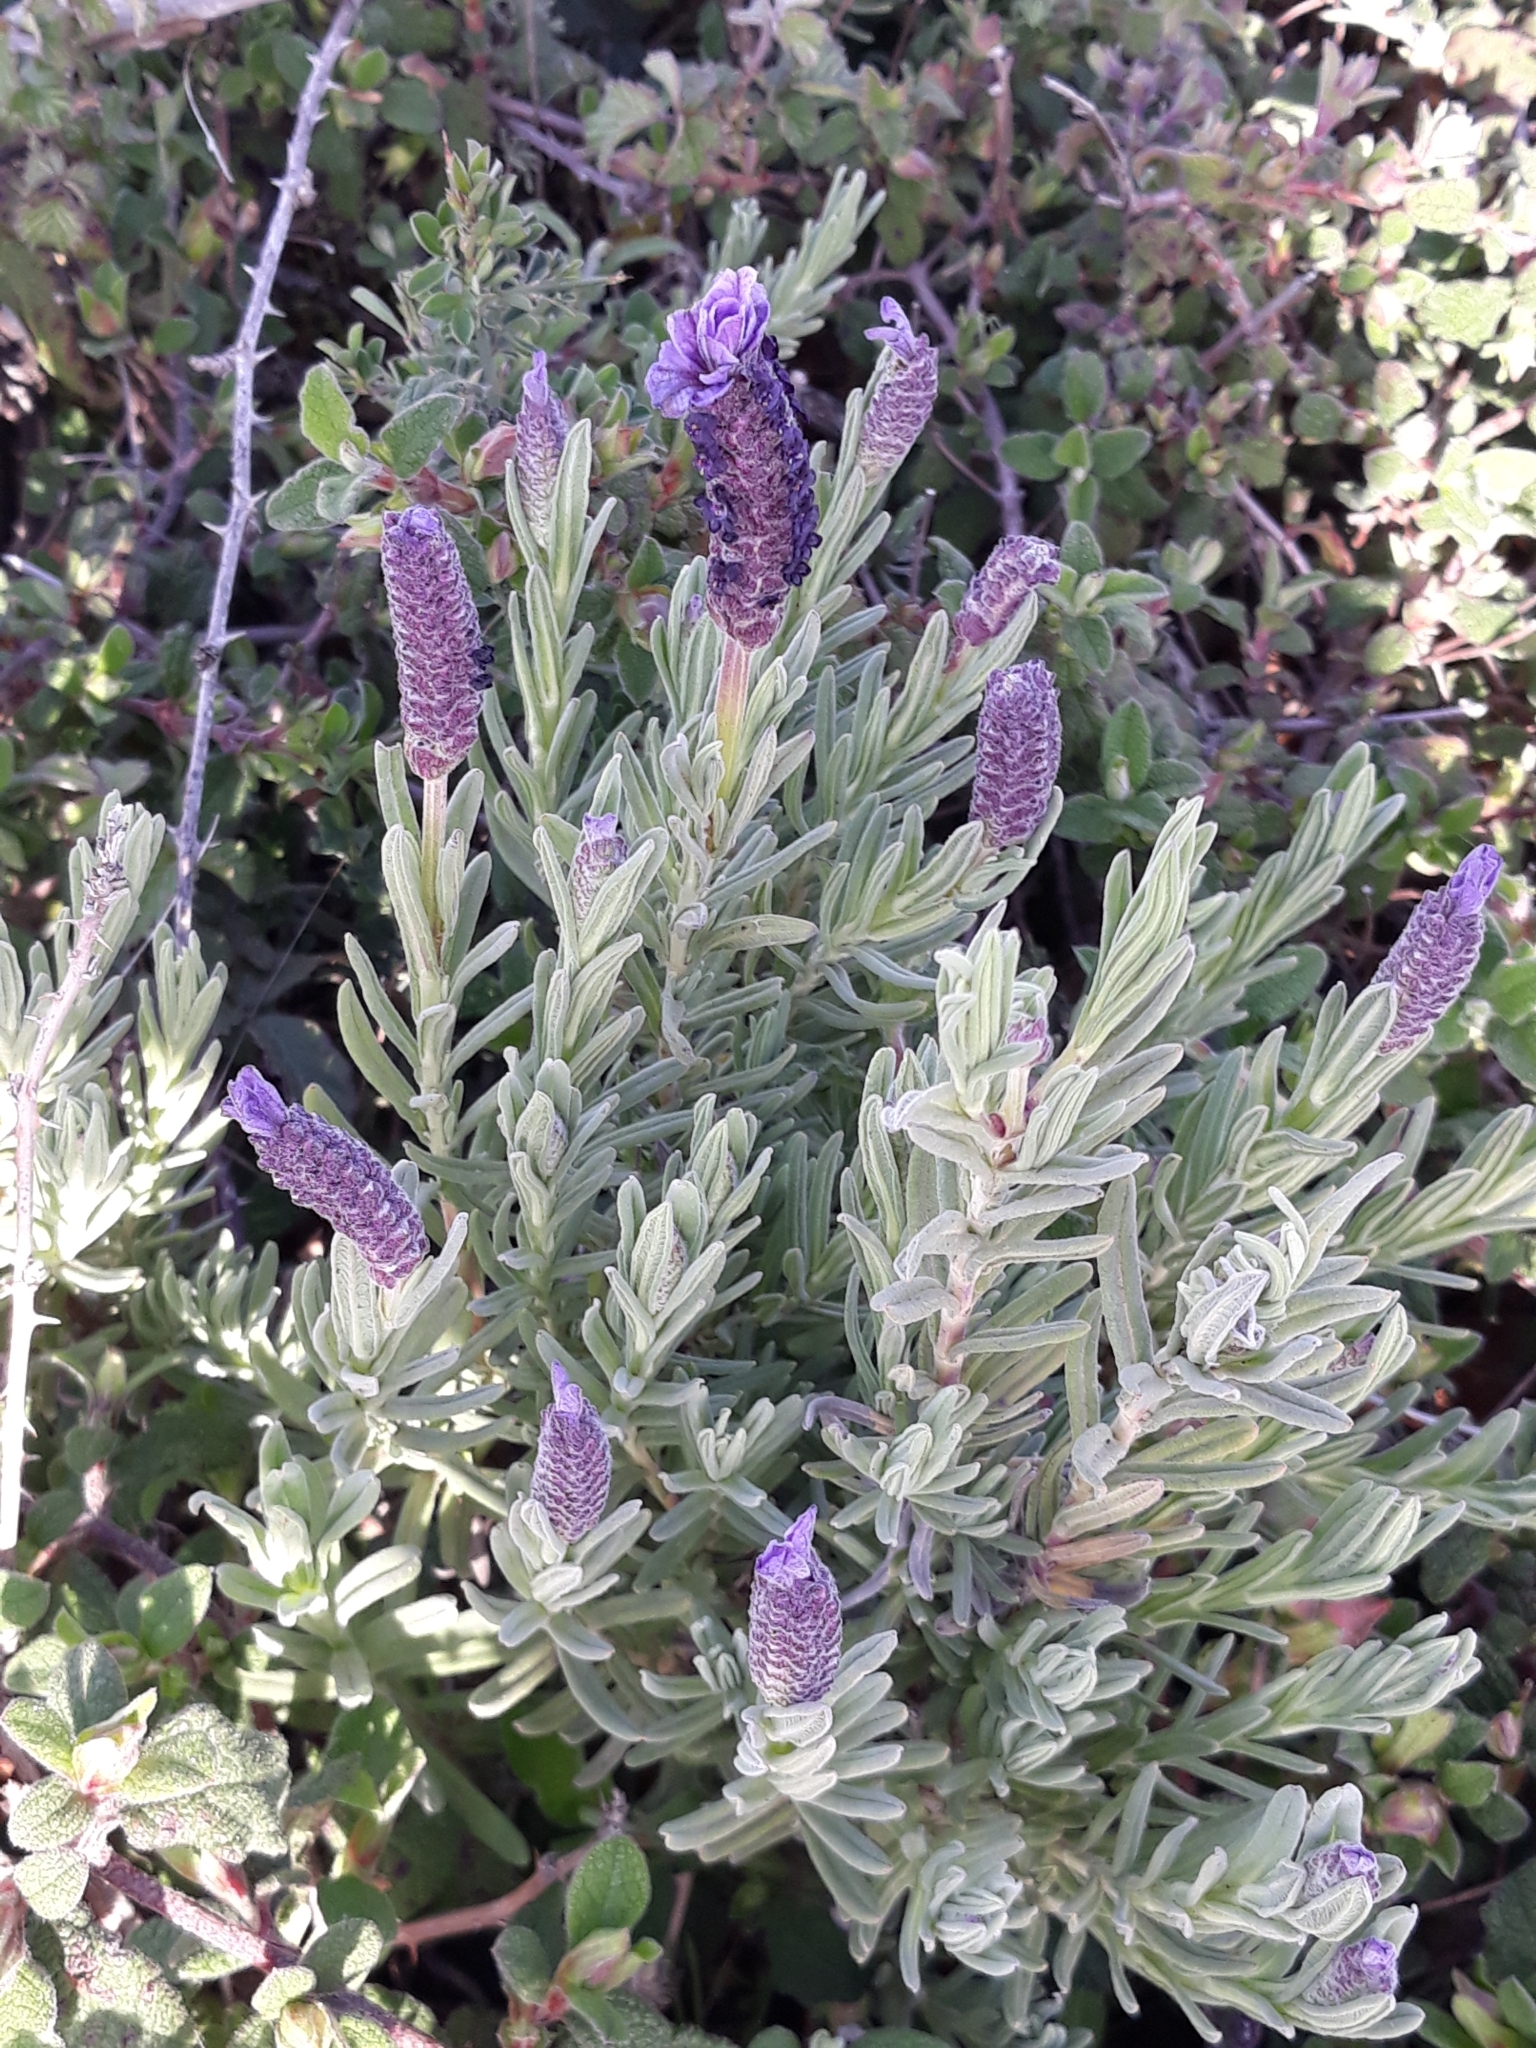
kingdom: Plantae
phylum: Tracheophyta
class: Magnoliopsida
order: Lamiales
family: Lamiaceae
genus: Lavandula
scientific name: Lavandula stoechas
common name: French lavender
